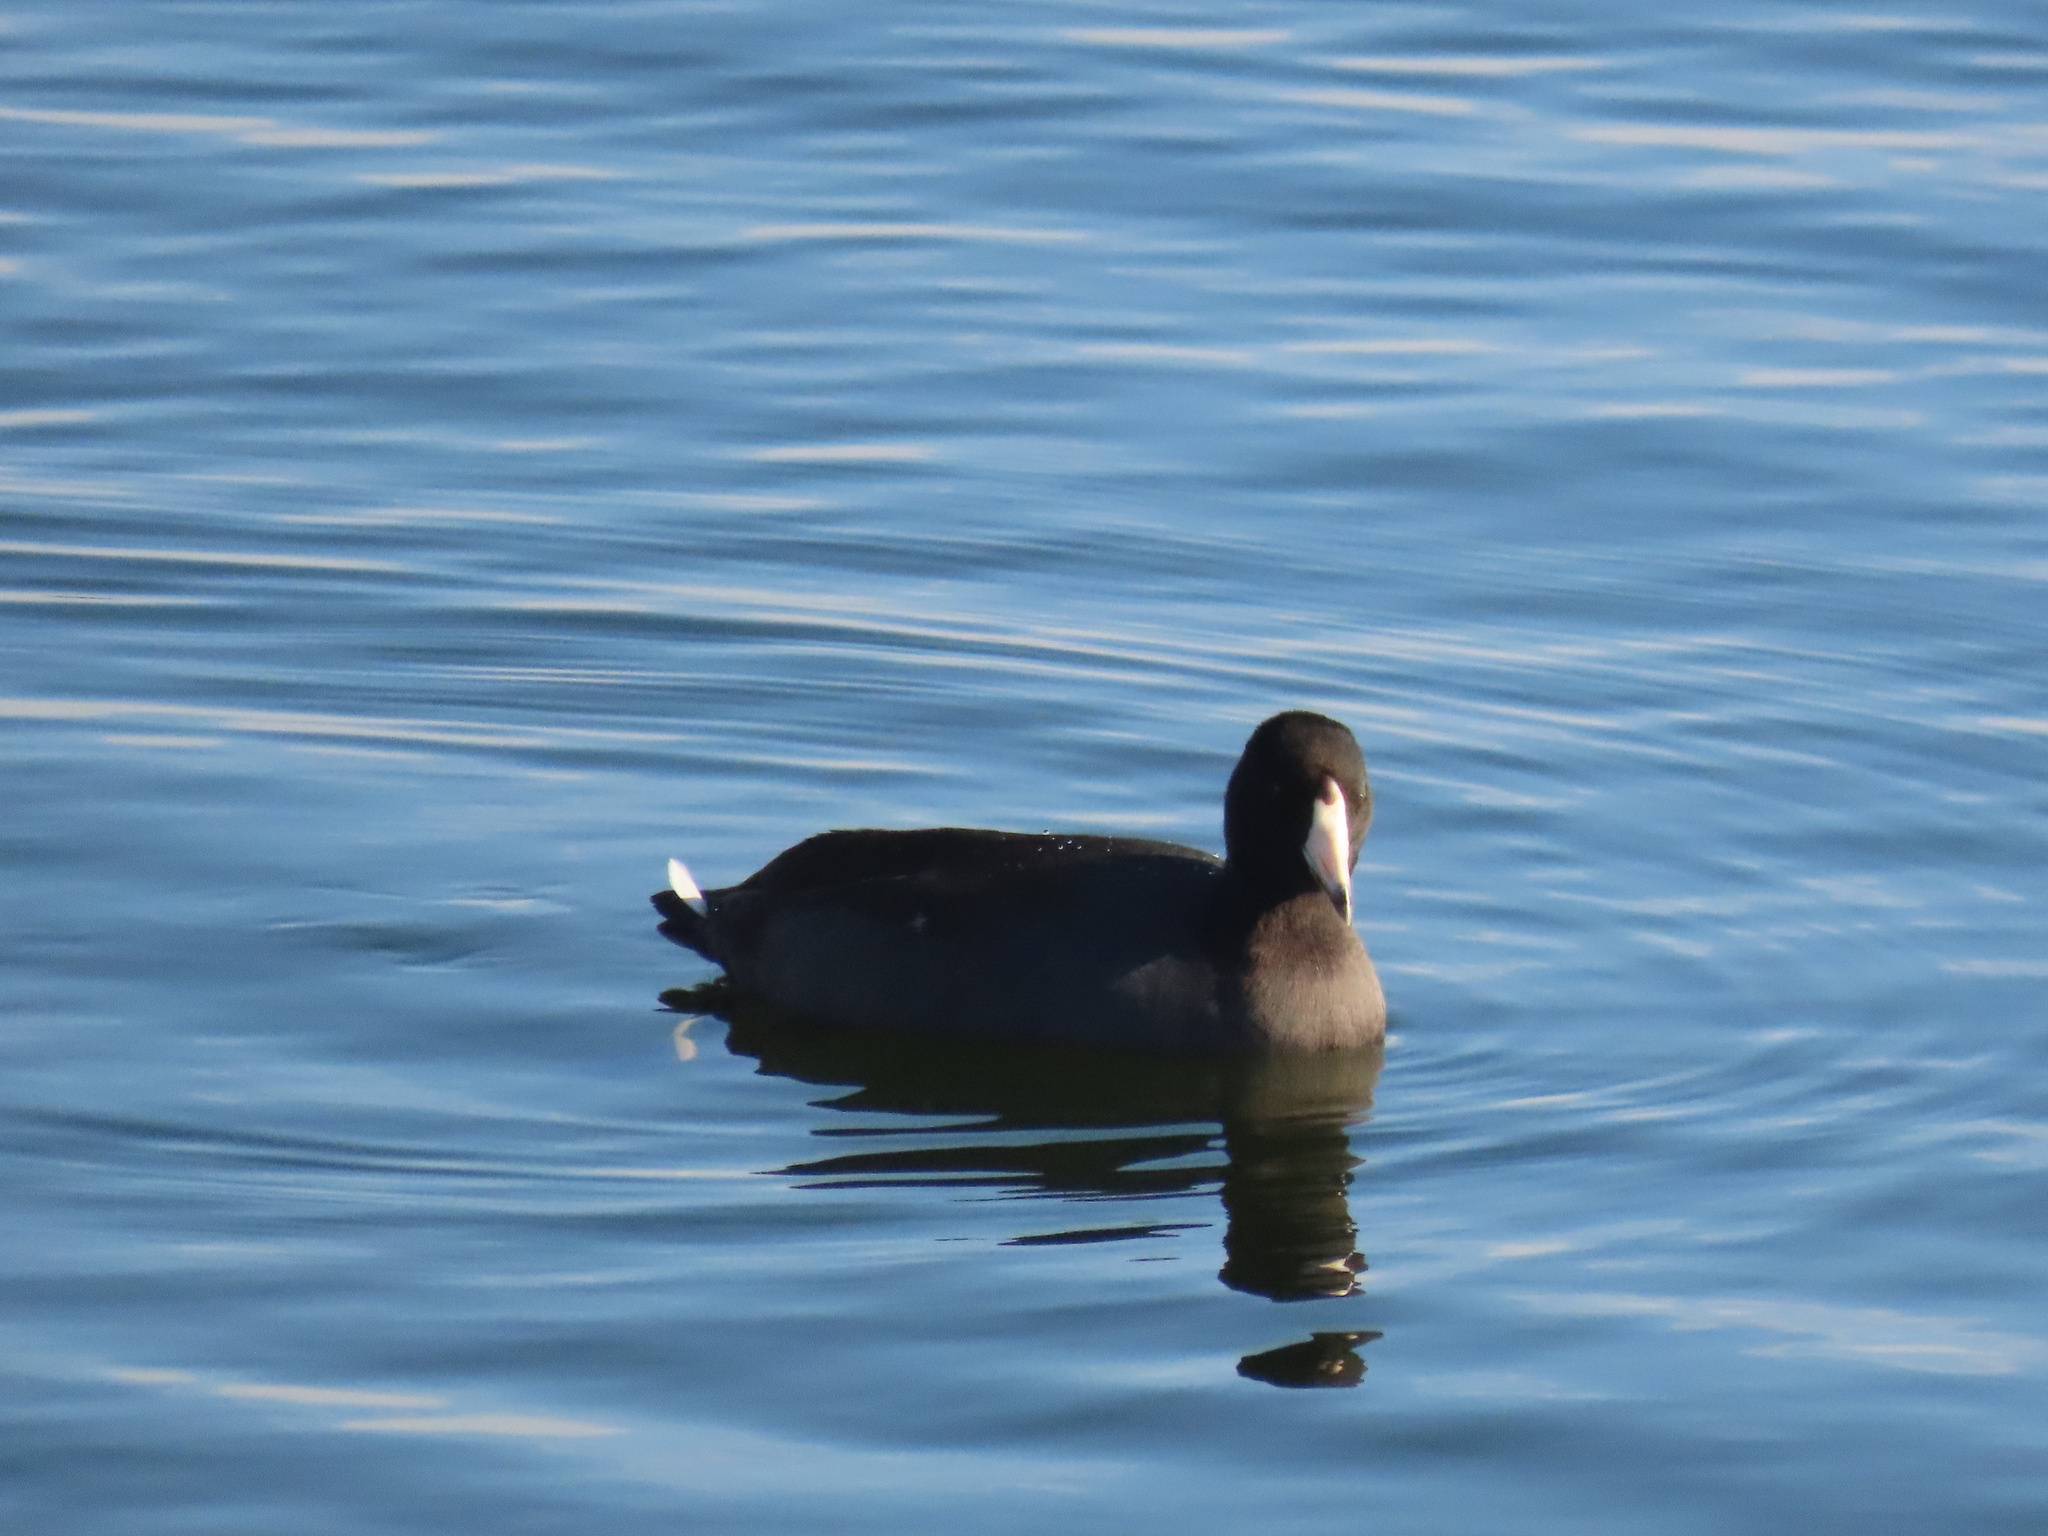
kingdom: Animalia
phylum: Chordata
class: Aves
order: Gruiformes
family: Rallidae
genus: Fulica
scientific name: Fulica americana
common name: American coot
